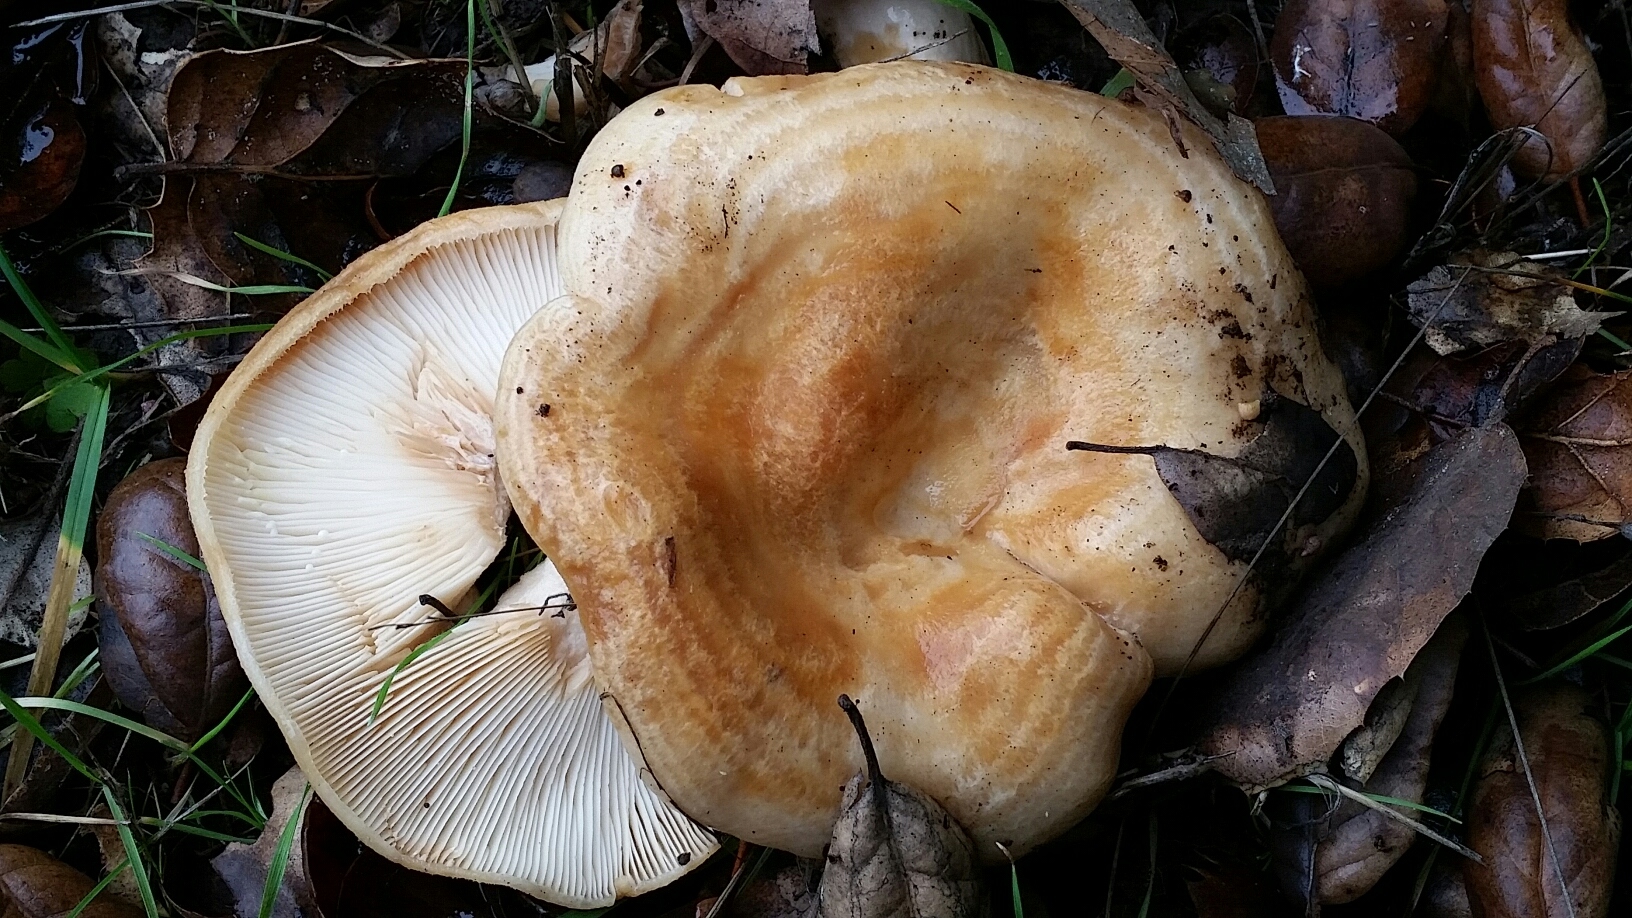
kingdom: Fungi
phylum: Basidiomycota
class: Agaricomycetes
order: Russulales
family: Russulaceae
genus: Lactarius
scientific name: Lactarius alnicola
